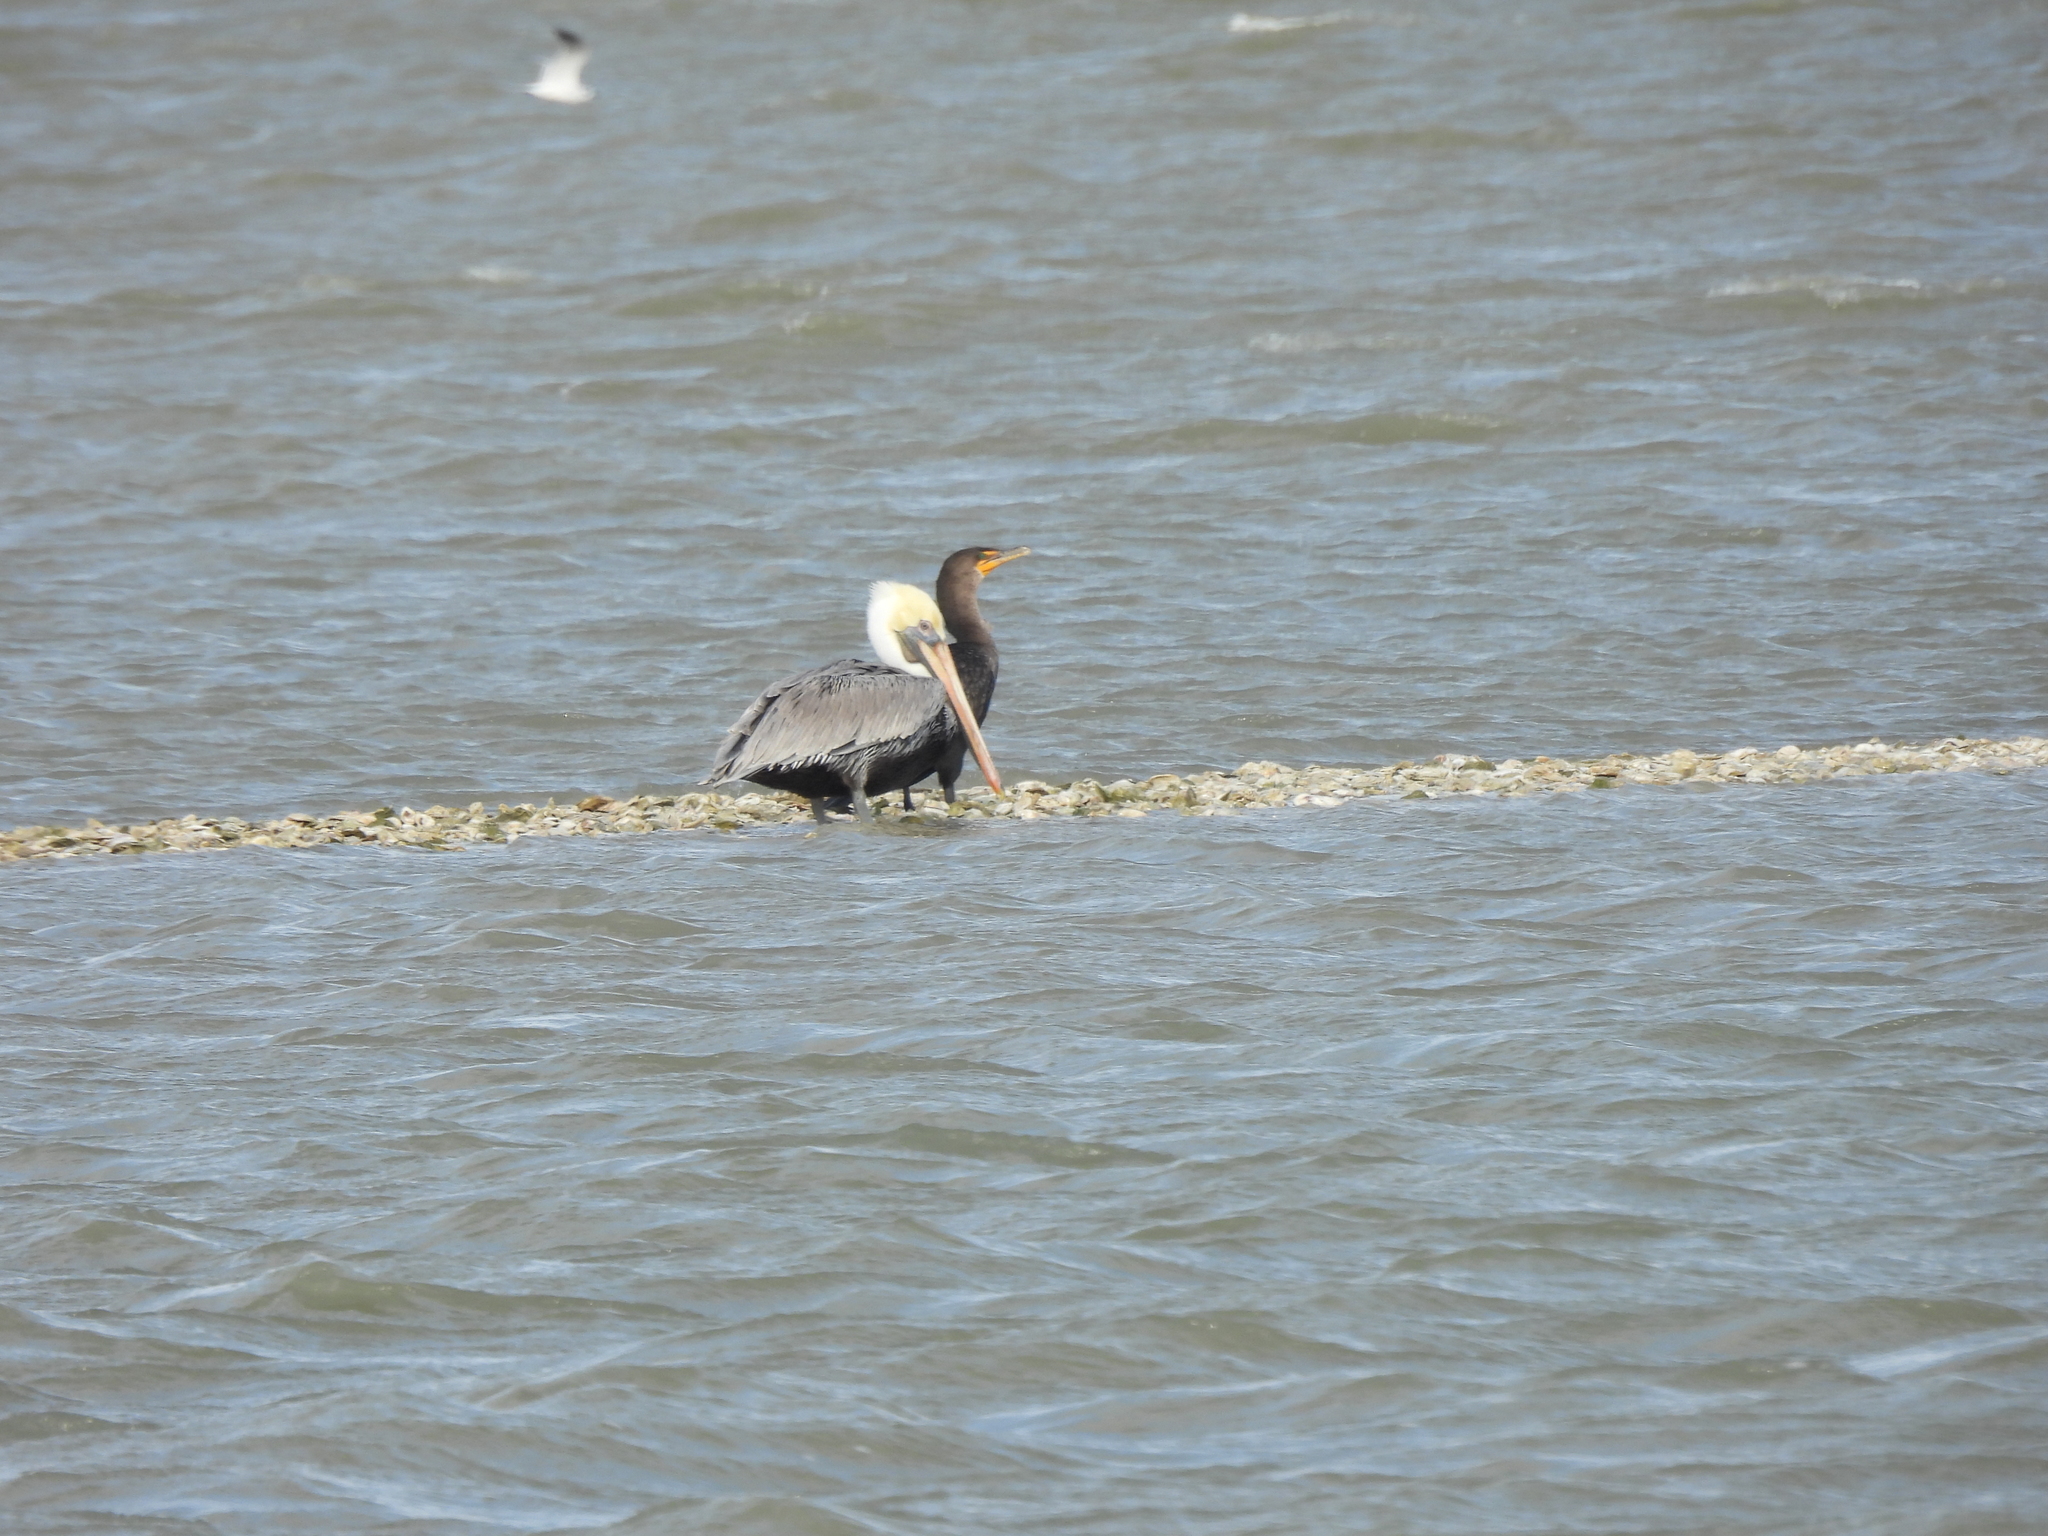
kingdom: Animalia
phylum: Chordata
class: Aves
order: Pelecaniformes
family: Pelecanidae
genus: Pelecanus
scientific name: Pelecanus occidentalis
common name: Brown pelican
